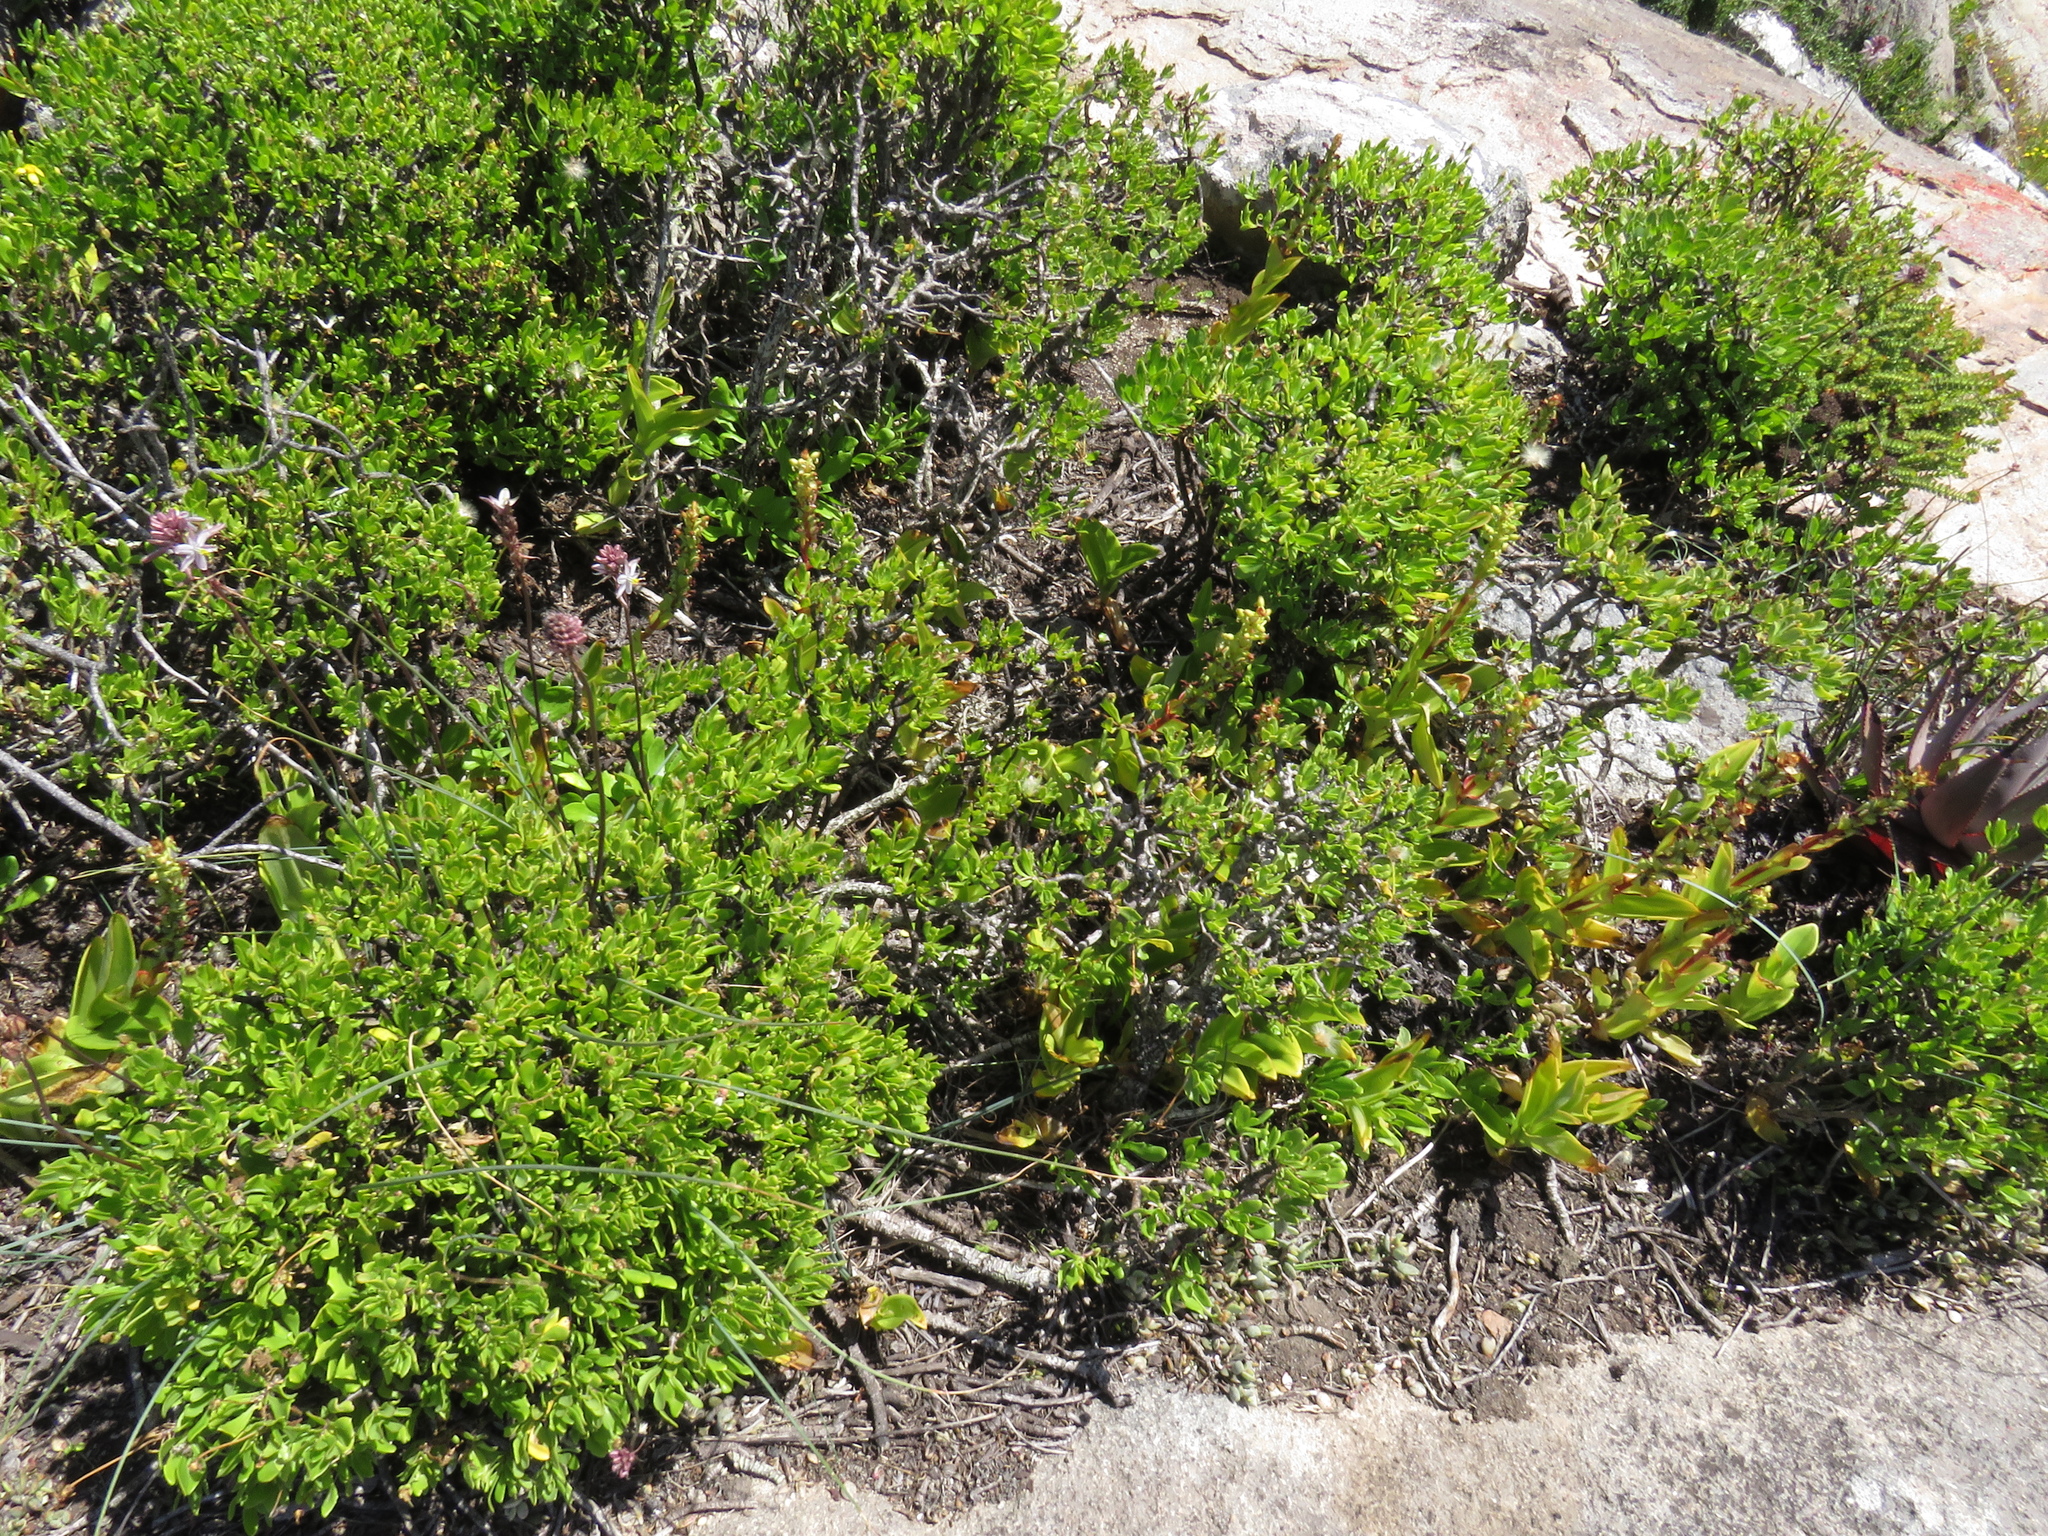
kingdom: Plantae
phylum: Tracheophyta
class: Liliopsida
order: Asparagales
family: Asparagaceae
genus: Drimia
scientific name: Drimia exuviata
